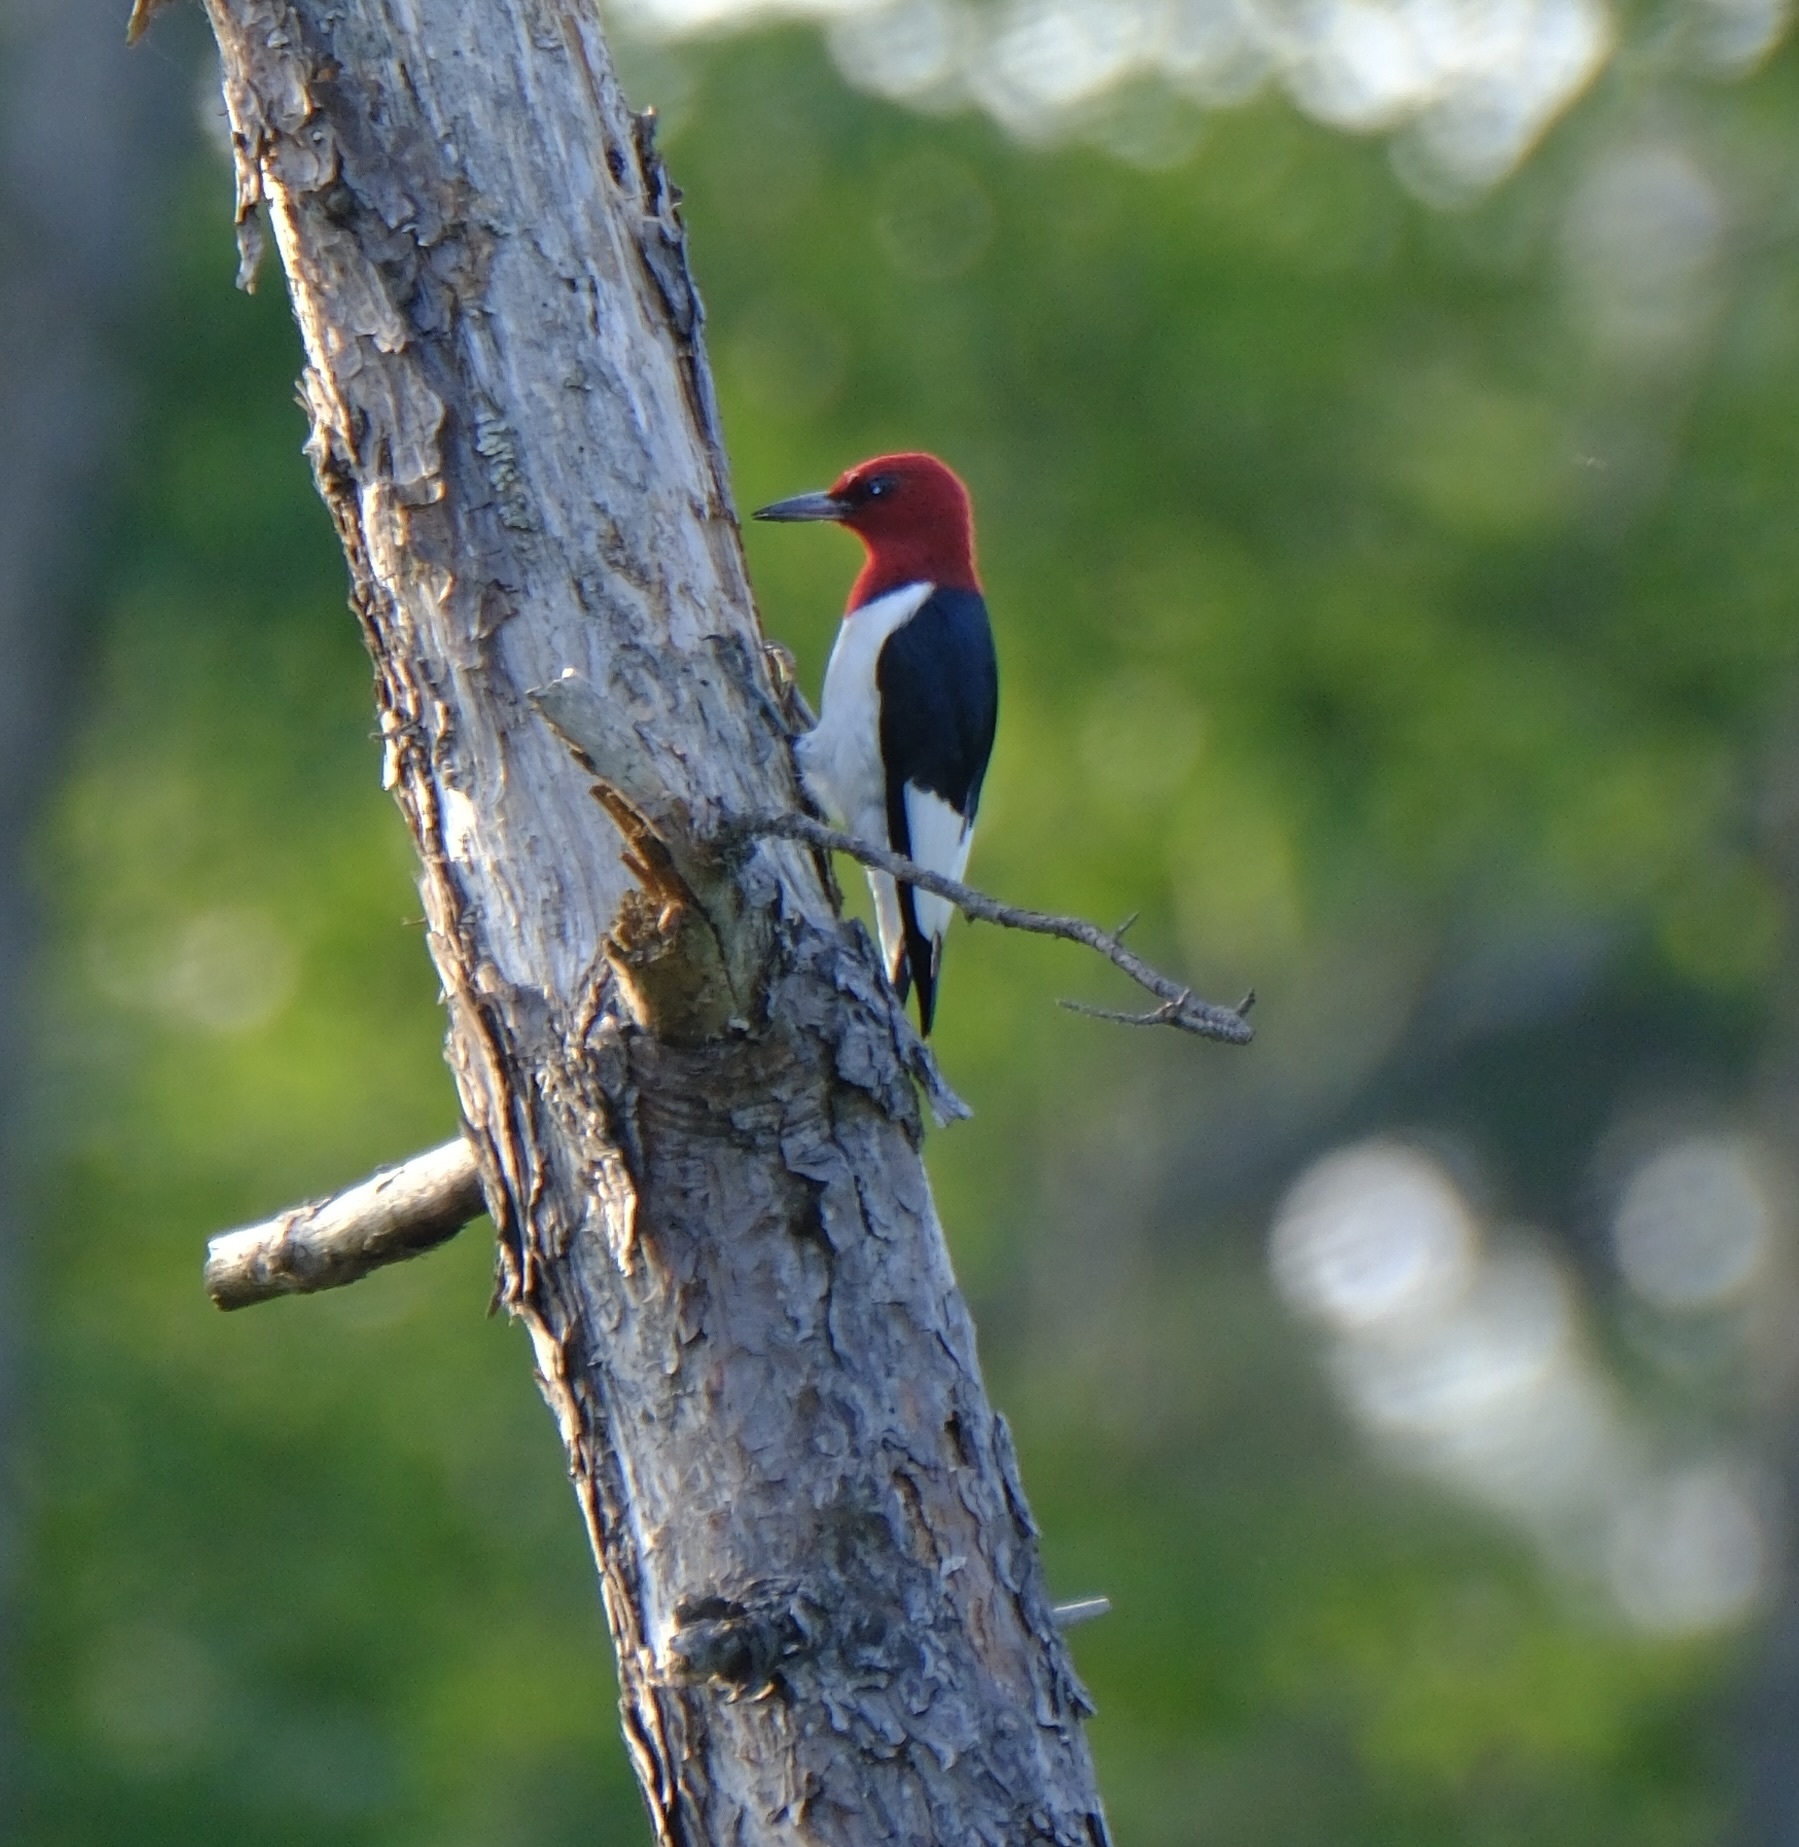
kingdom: Animalia
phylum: Chordata
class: Aves
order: Piciformes
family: Picidae
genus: Melanerpes
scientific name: Melanerpes erythrocephalus
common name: Red-headed woodpecker
